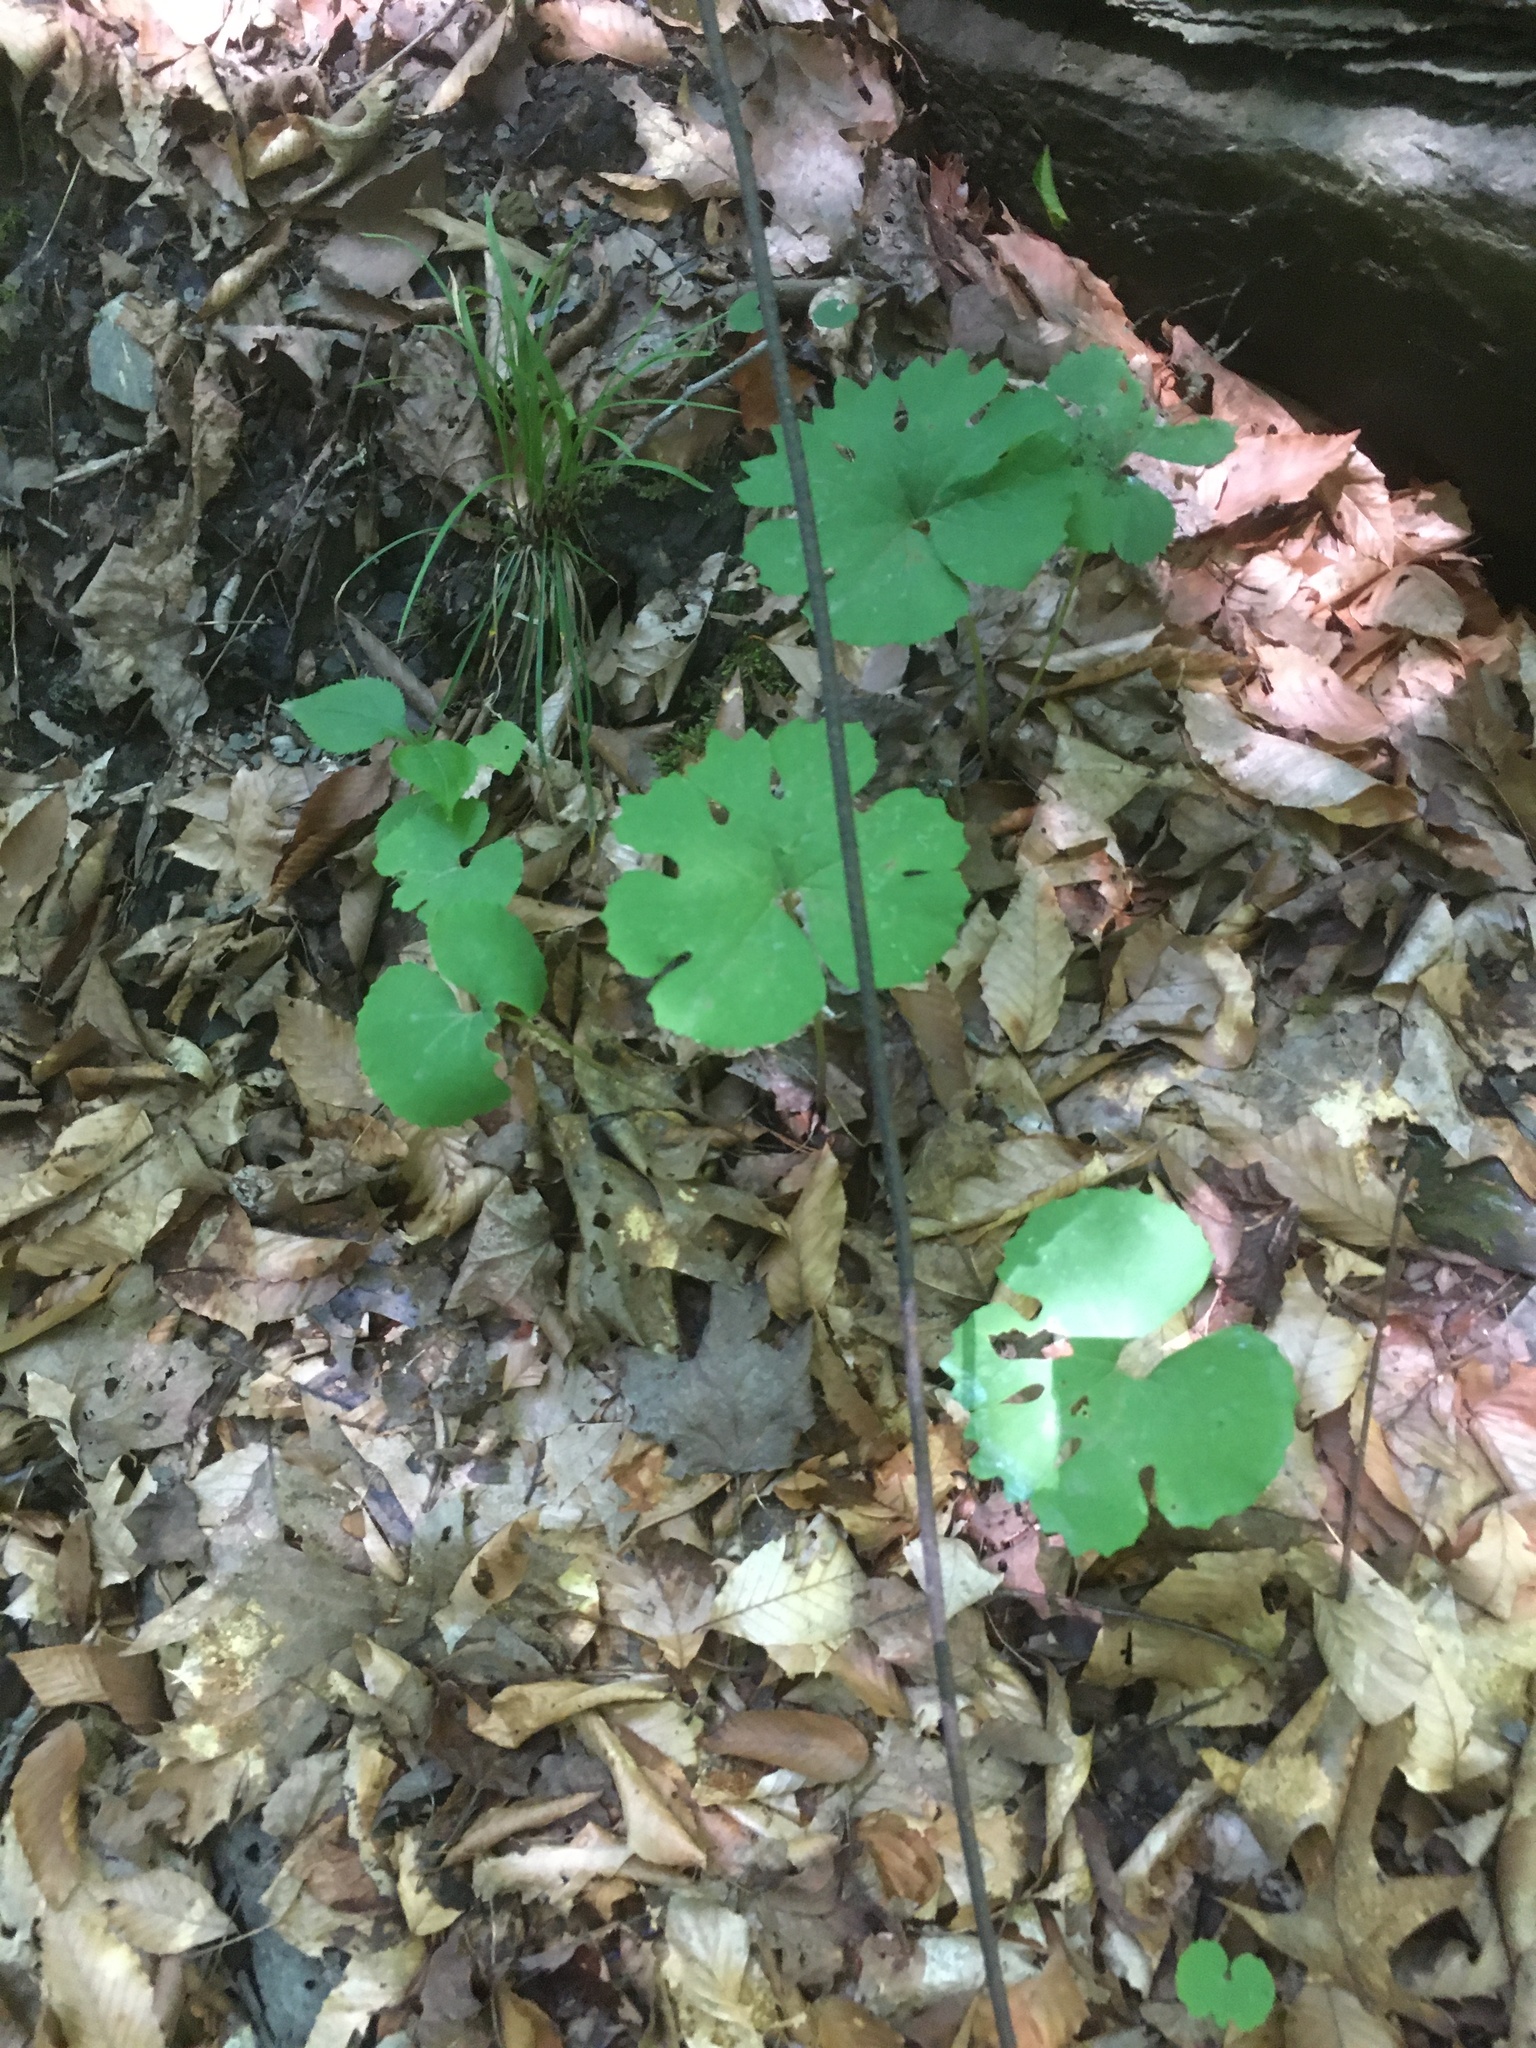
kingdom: Plantae
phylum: Tracheophyta
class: Magnoliopsida
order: Ranunculales
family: Papaveraceae
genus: Sanguinaria
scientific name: Sanguinaria canadensis
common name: Bloodroot
